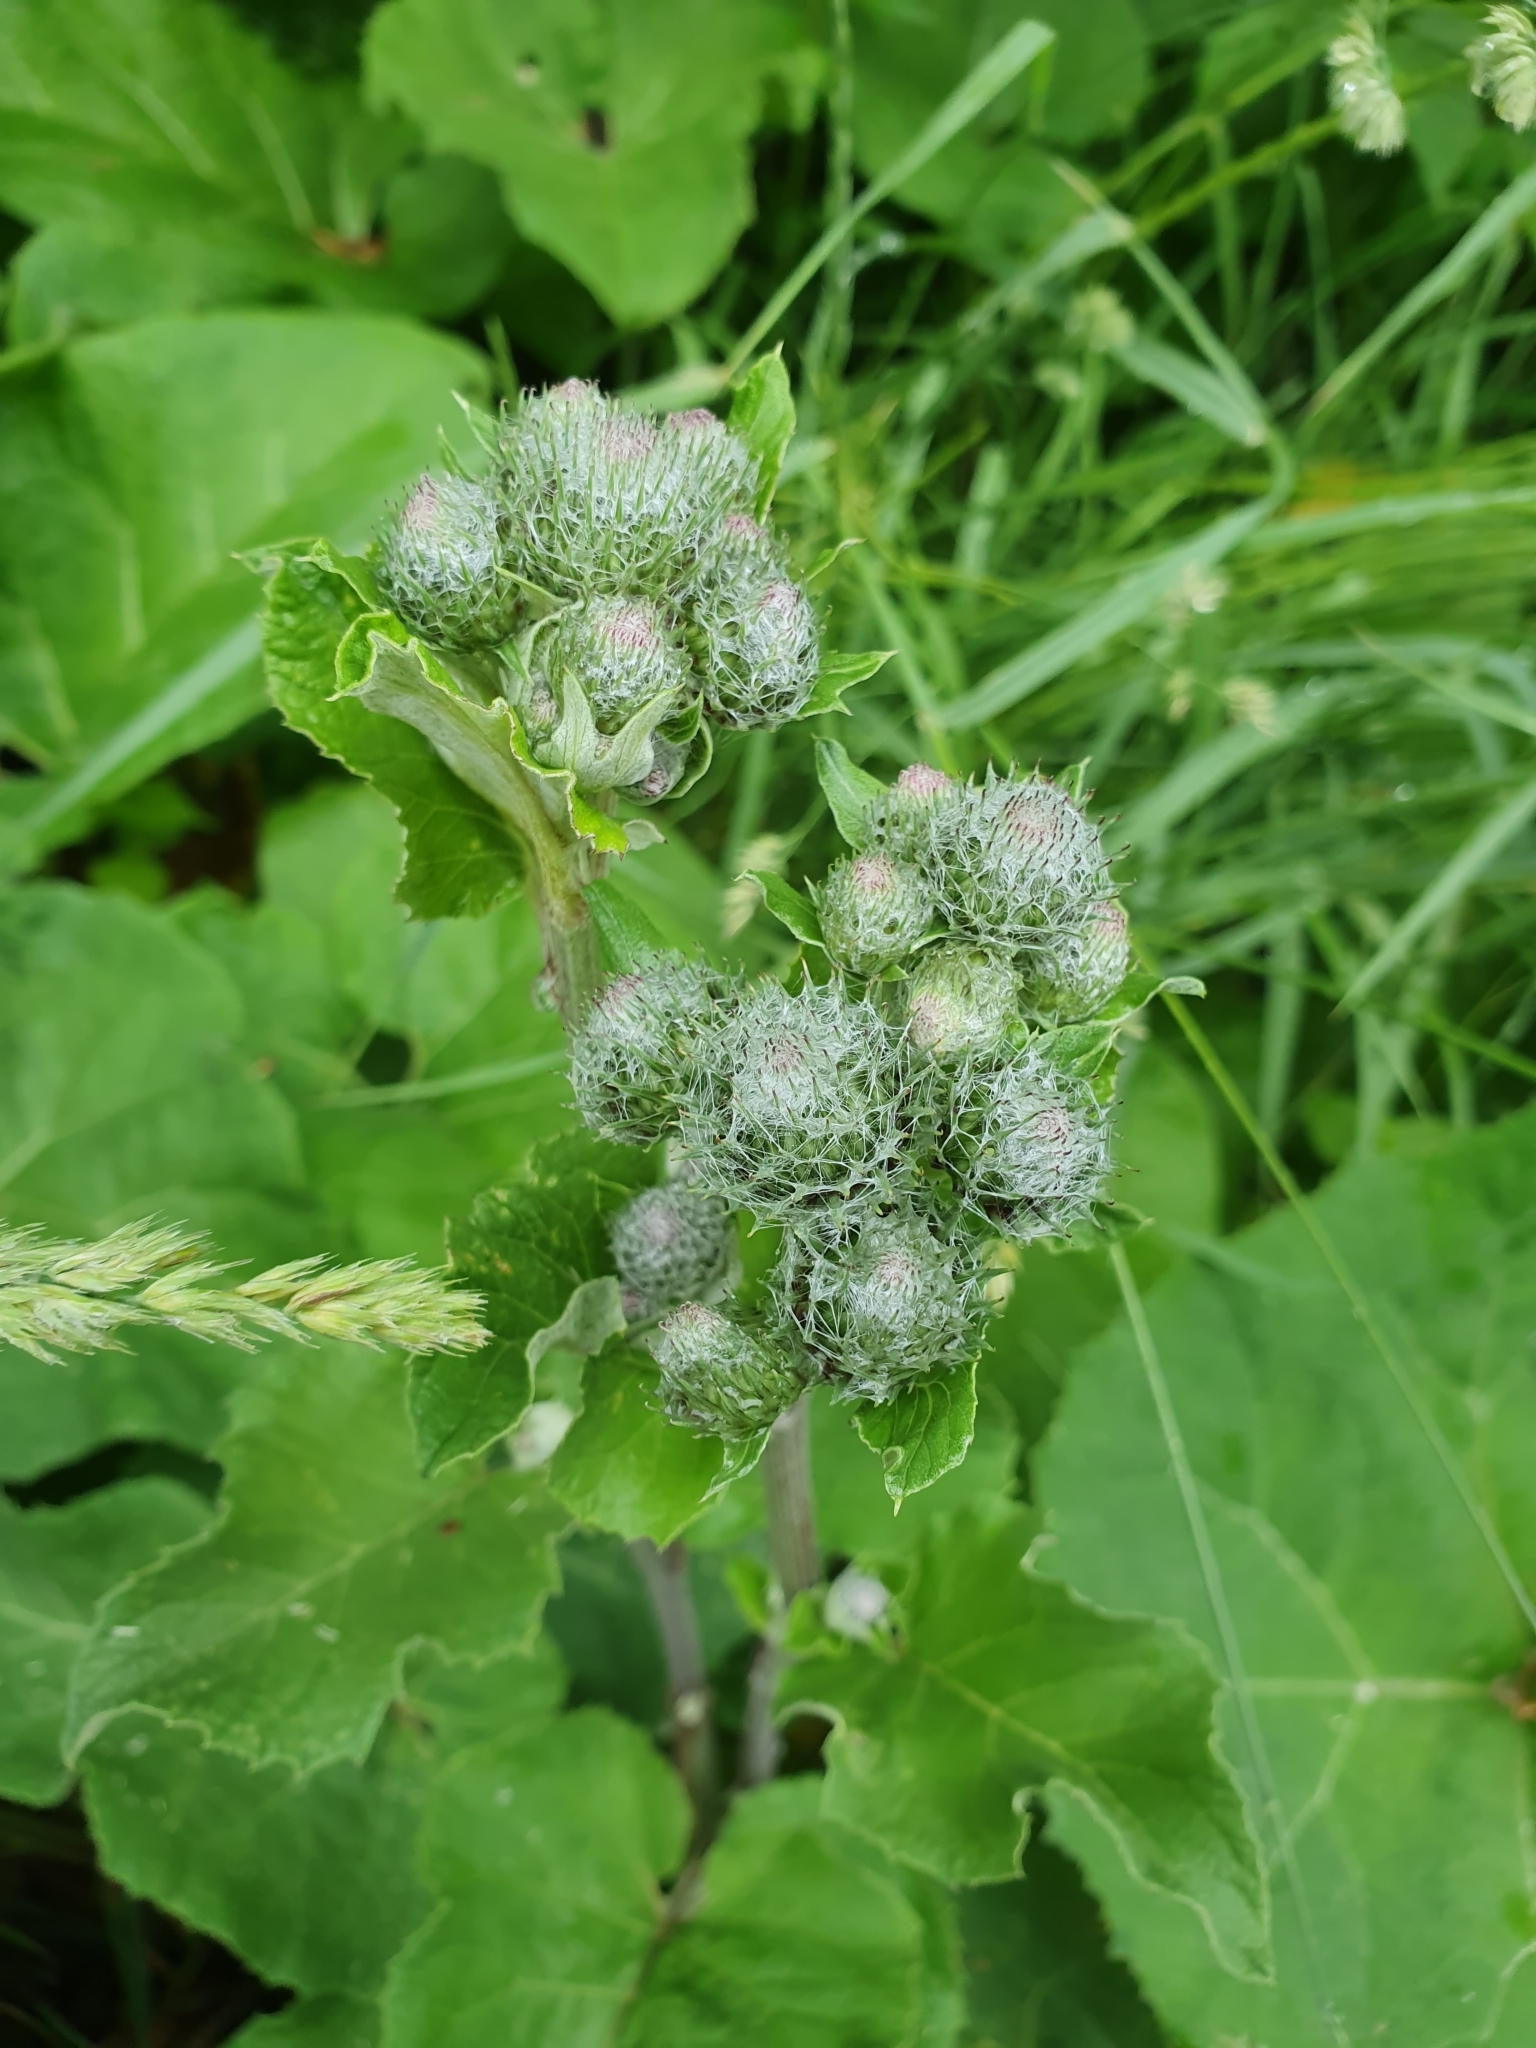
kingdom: Plantae
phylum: Tracheophyta
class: Magnoliopsida
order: Asterales
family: Asteraceae
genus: Arctium
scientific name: Arctium tomentosum
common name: Woolly burdock
